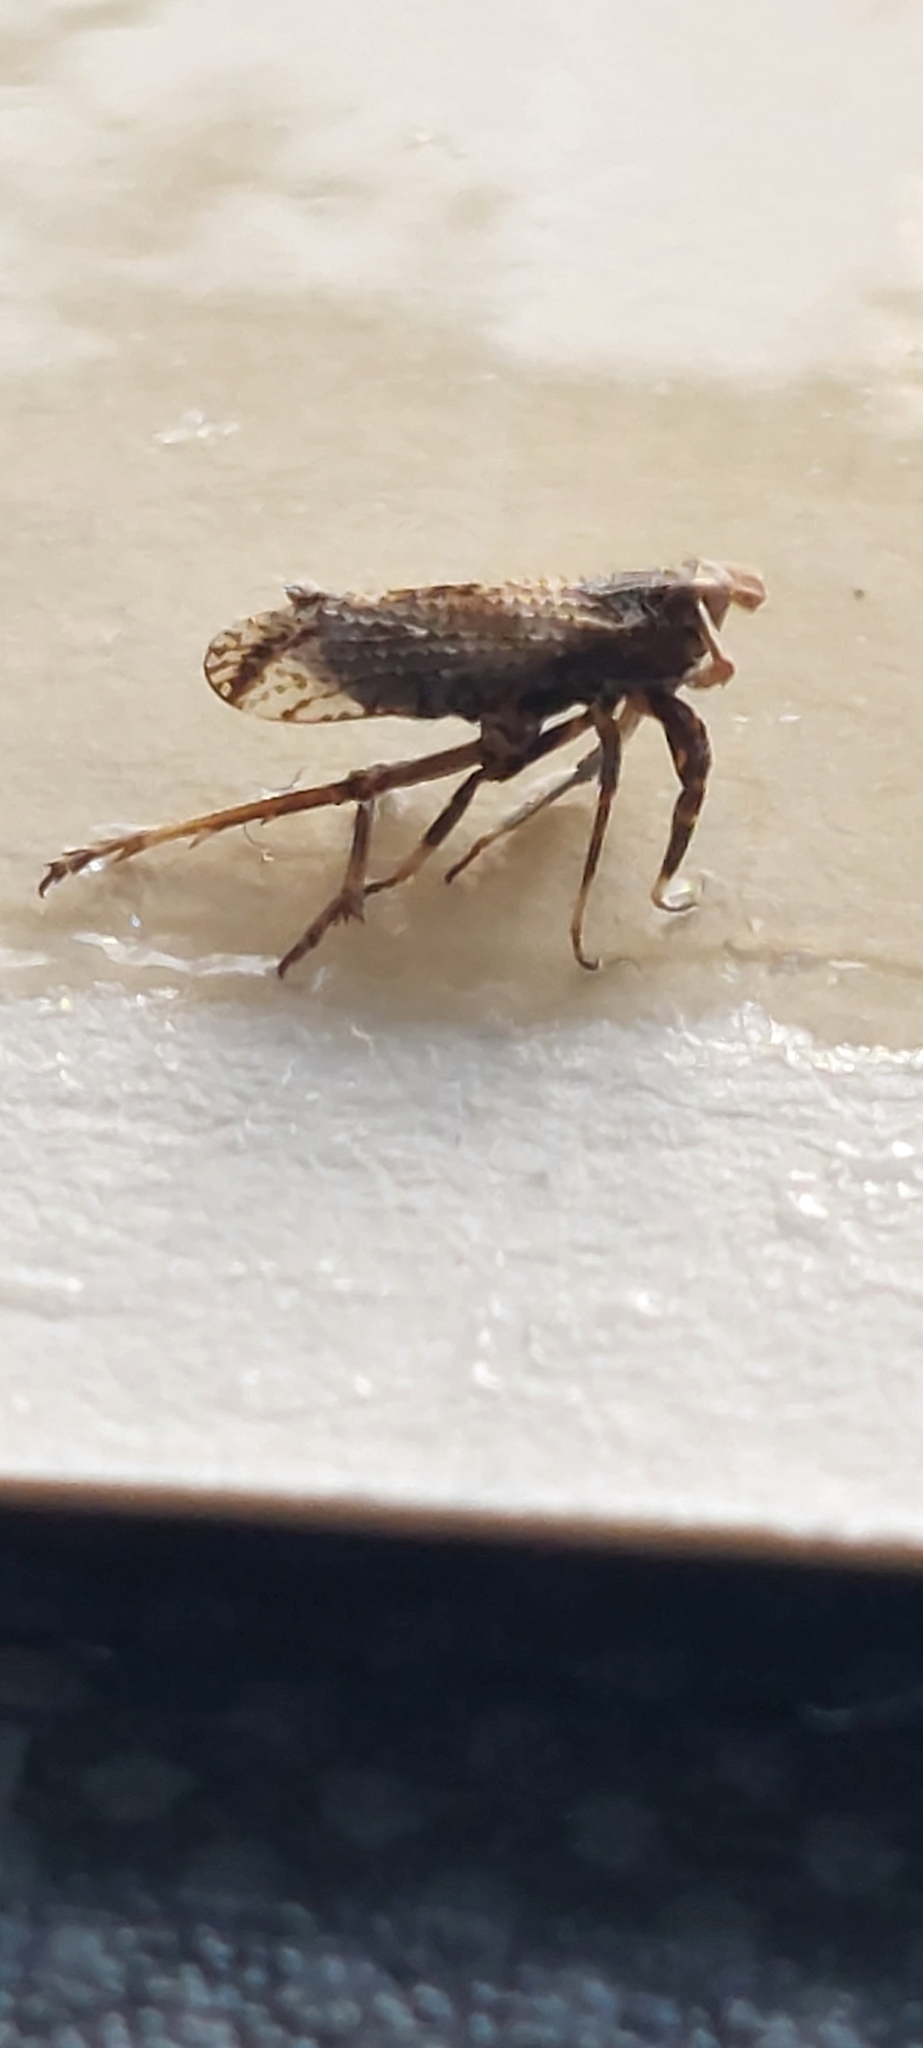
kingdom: Animalia
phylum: Arthropoda
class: Insecta
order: Hemiptera
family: Delphacidae
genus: Asiraca
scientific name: Asiraca clavicornis
